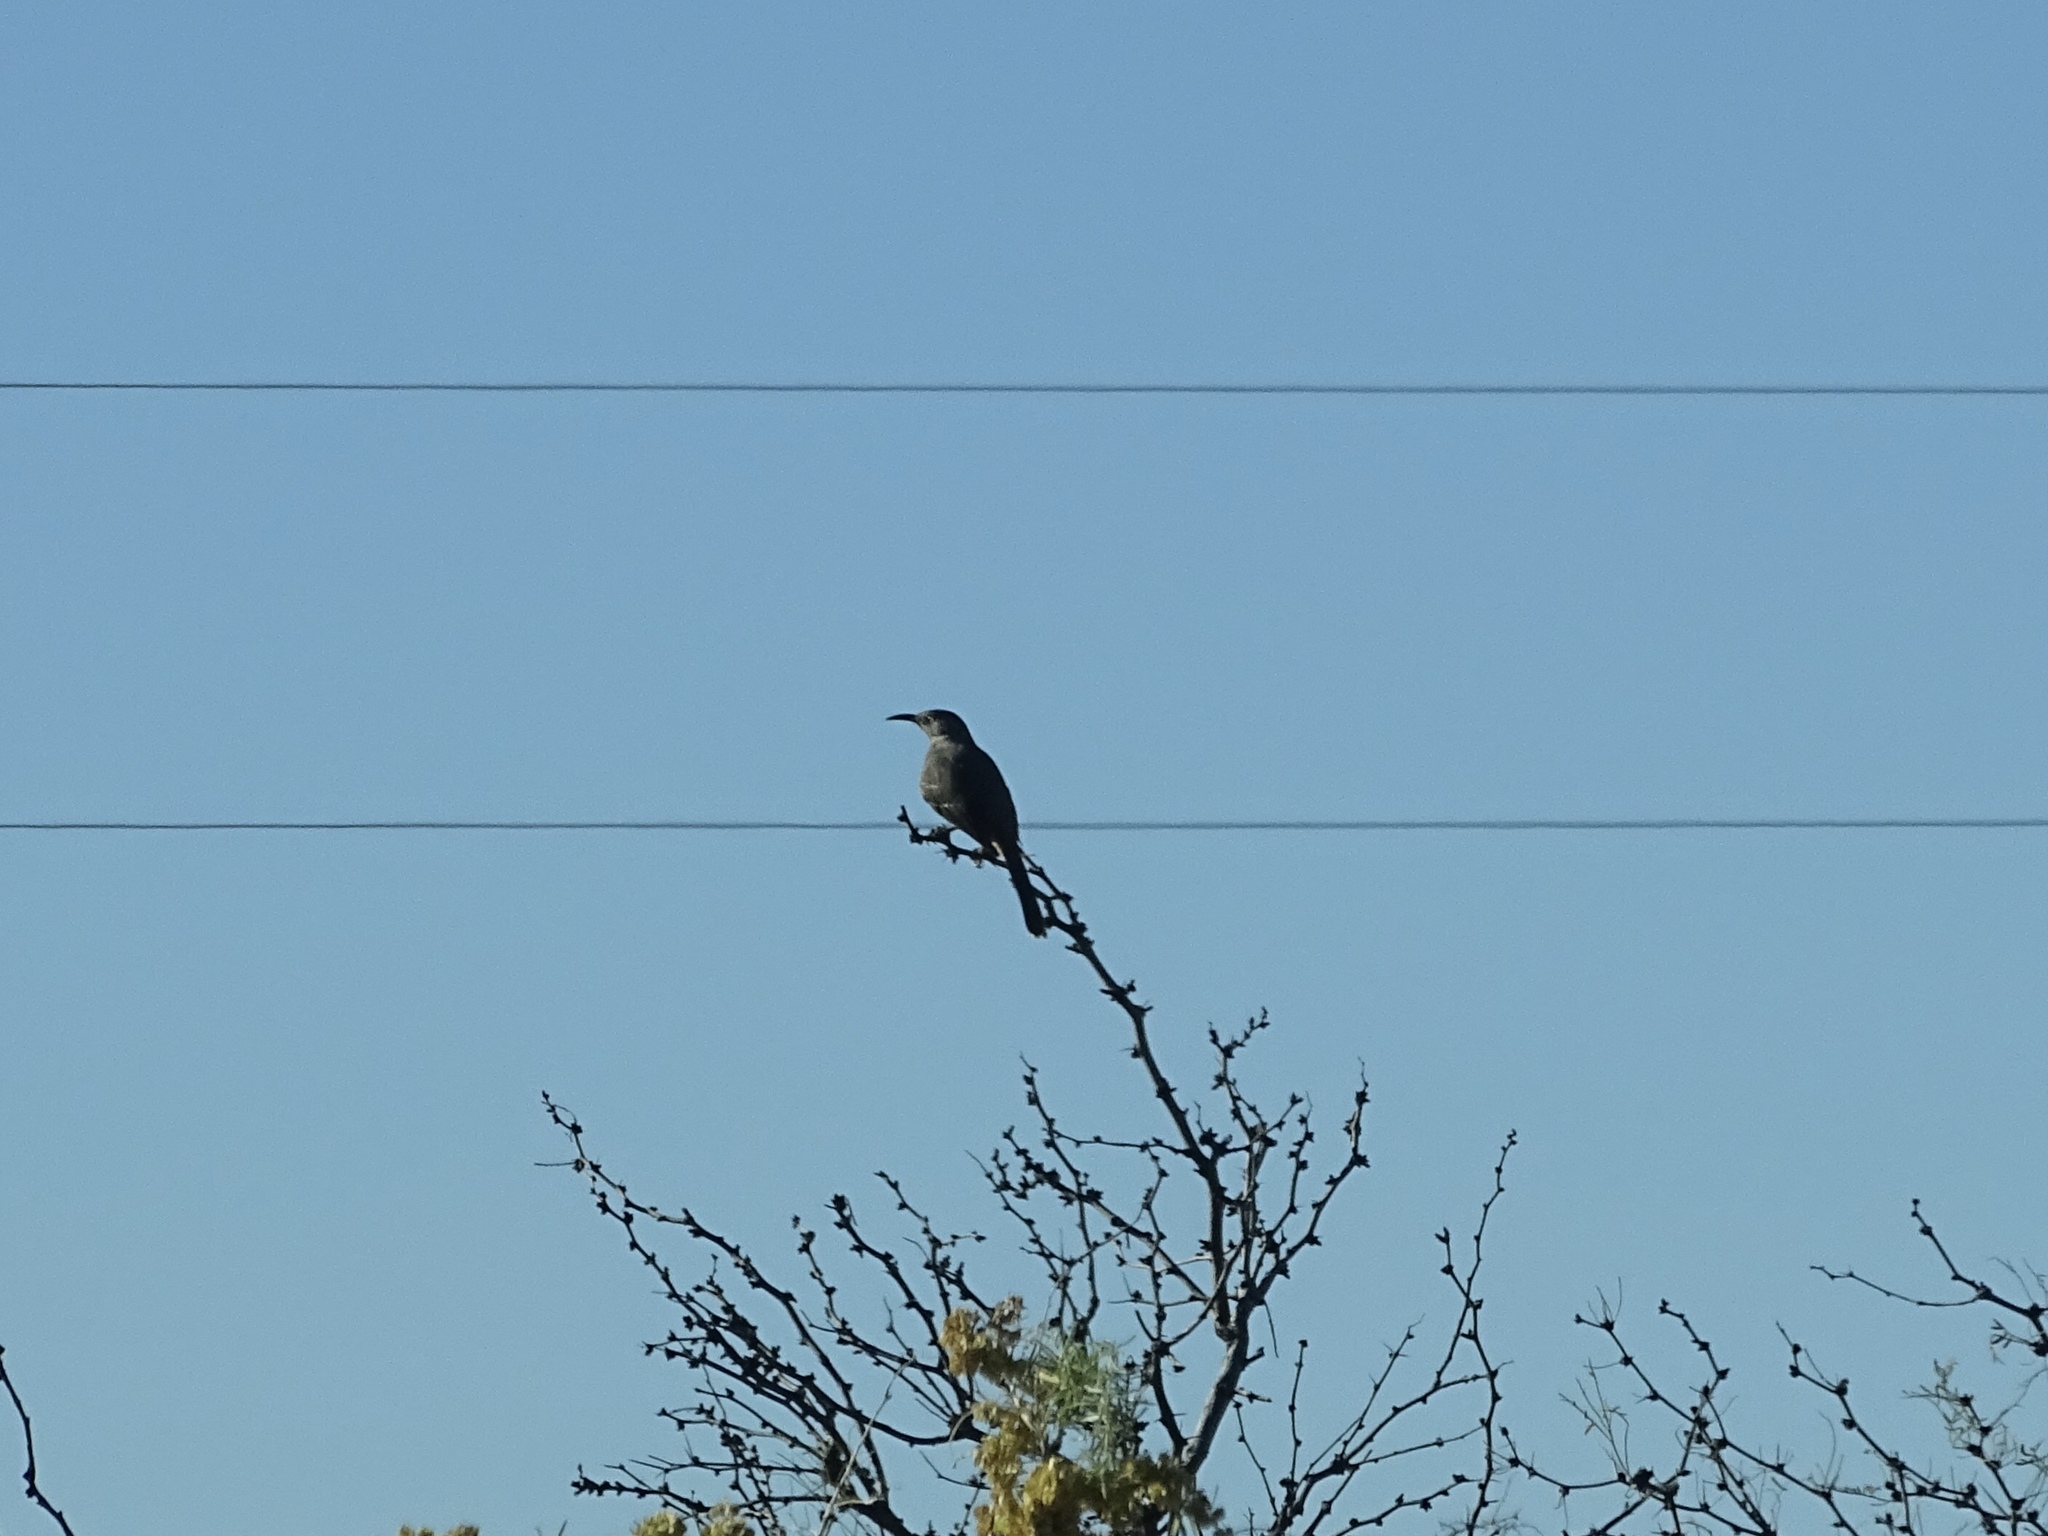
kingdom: Animalia
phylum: Chordata
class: Aves
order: Passeriformes
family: Mimidae
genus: Toxostoma
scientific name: Toxostoma curvirostre
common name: Curve-billed thrasher
